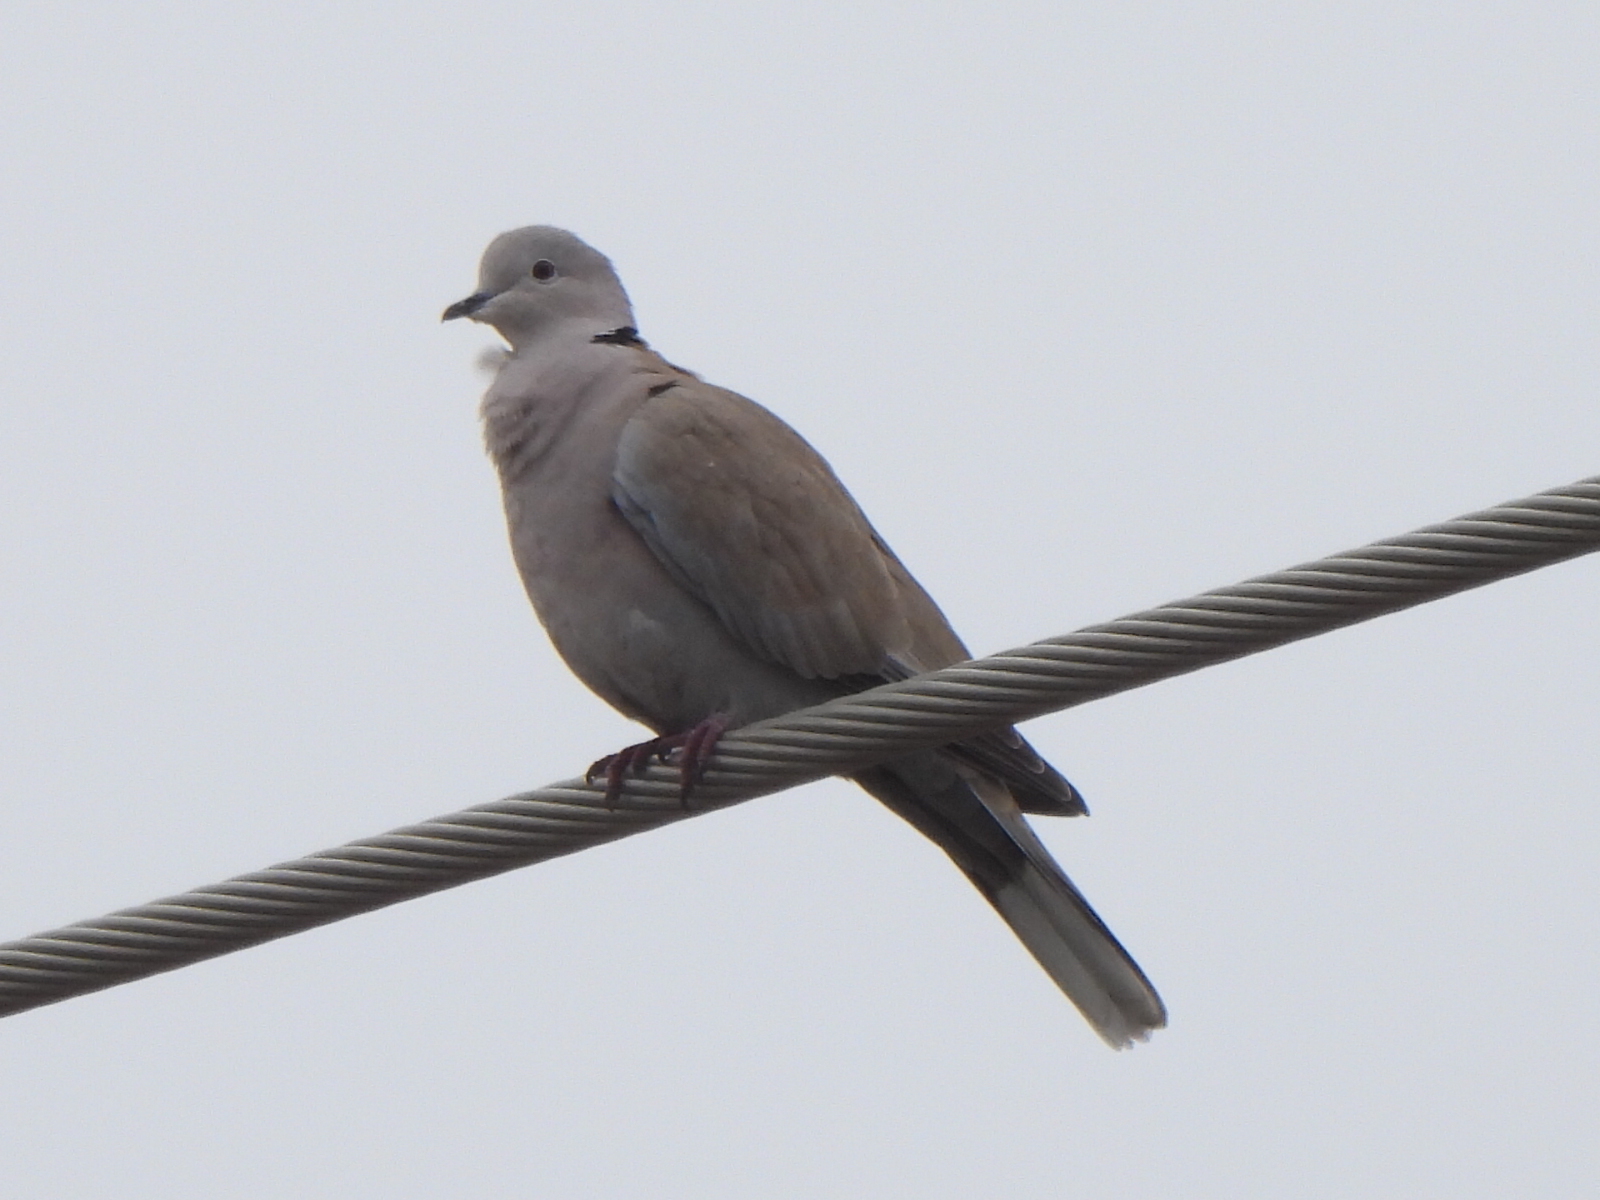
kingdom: Animalia
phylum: Chordata
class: Aves
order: Columbiformes
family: Columbidae
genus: Streptopelia
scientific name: Streptopelia decaocto
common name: Eurasian collared dove
